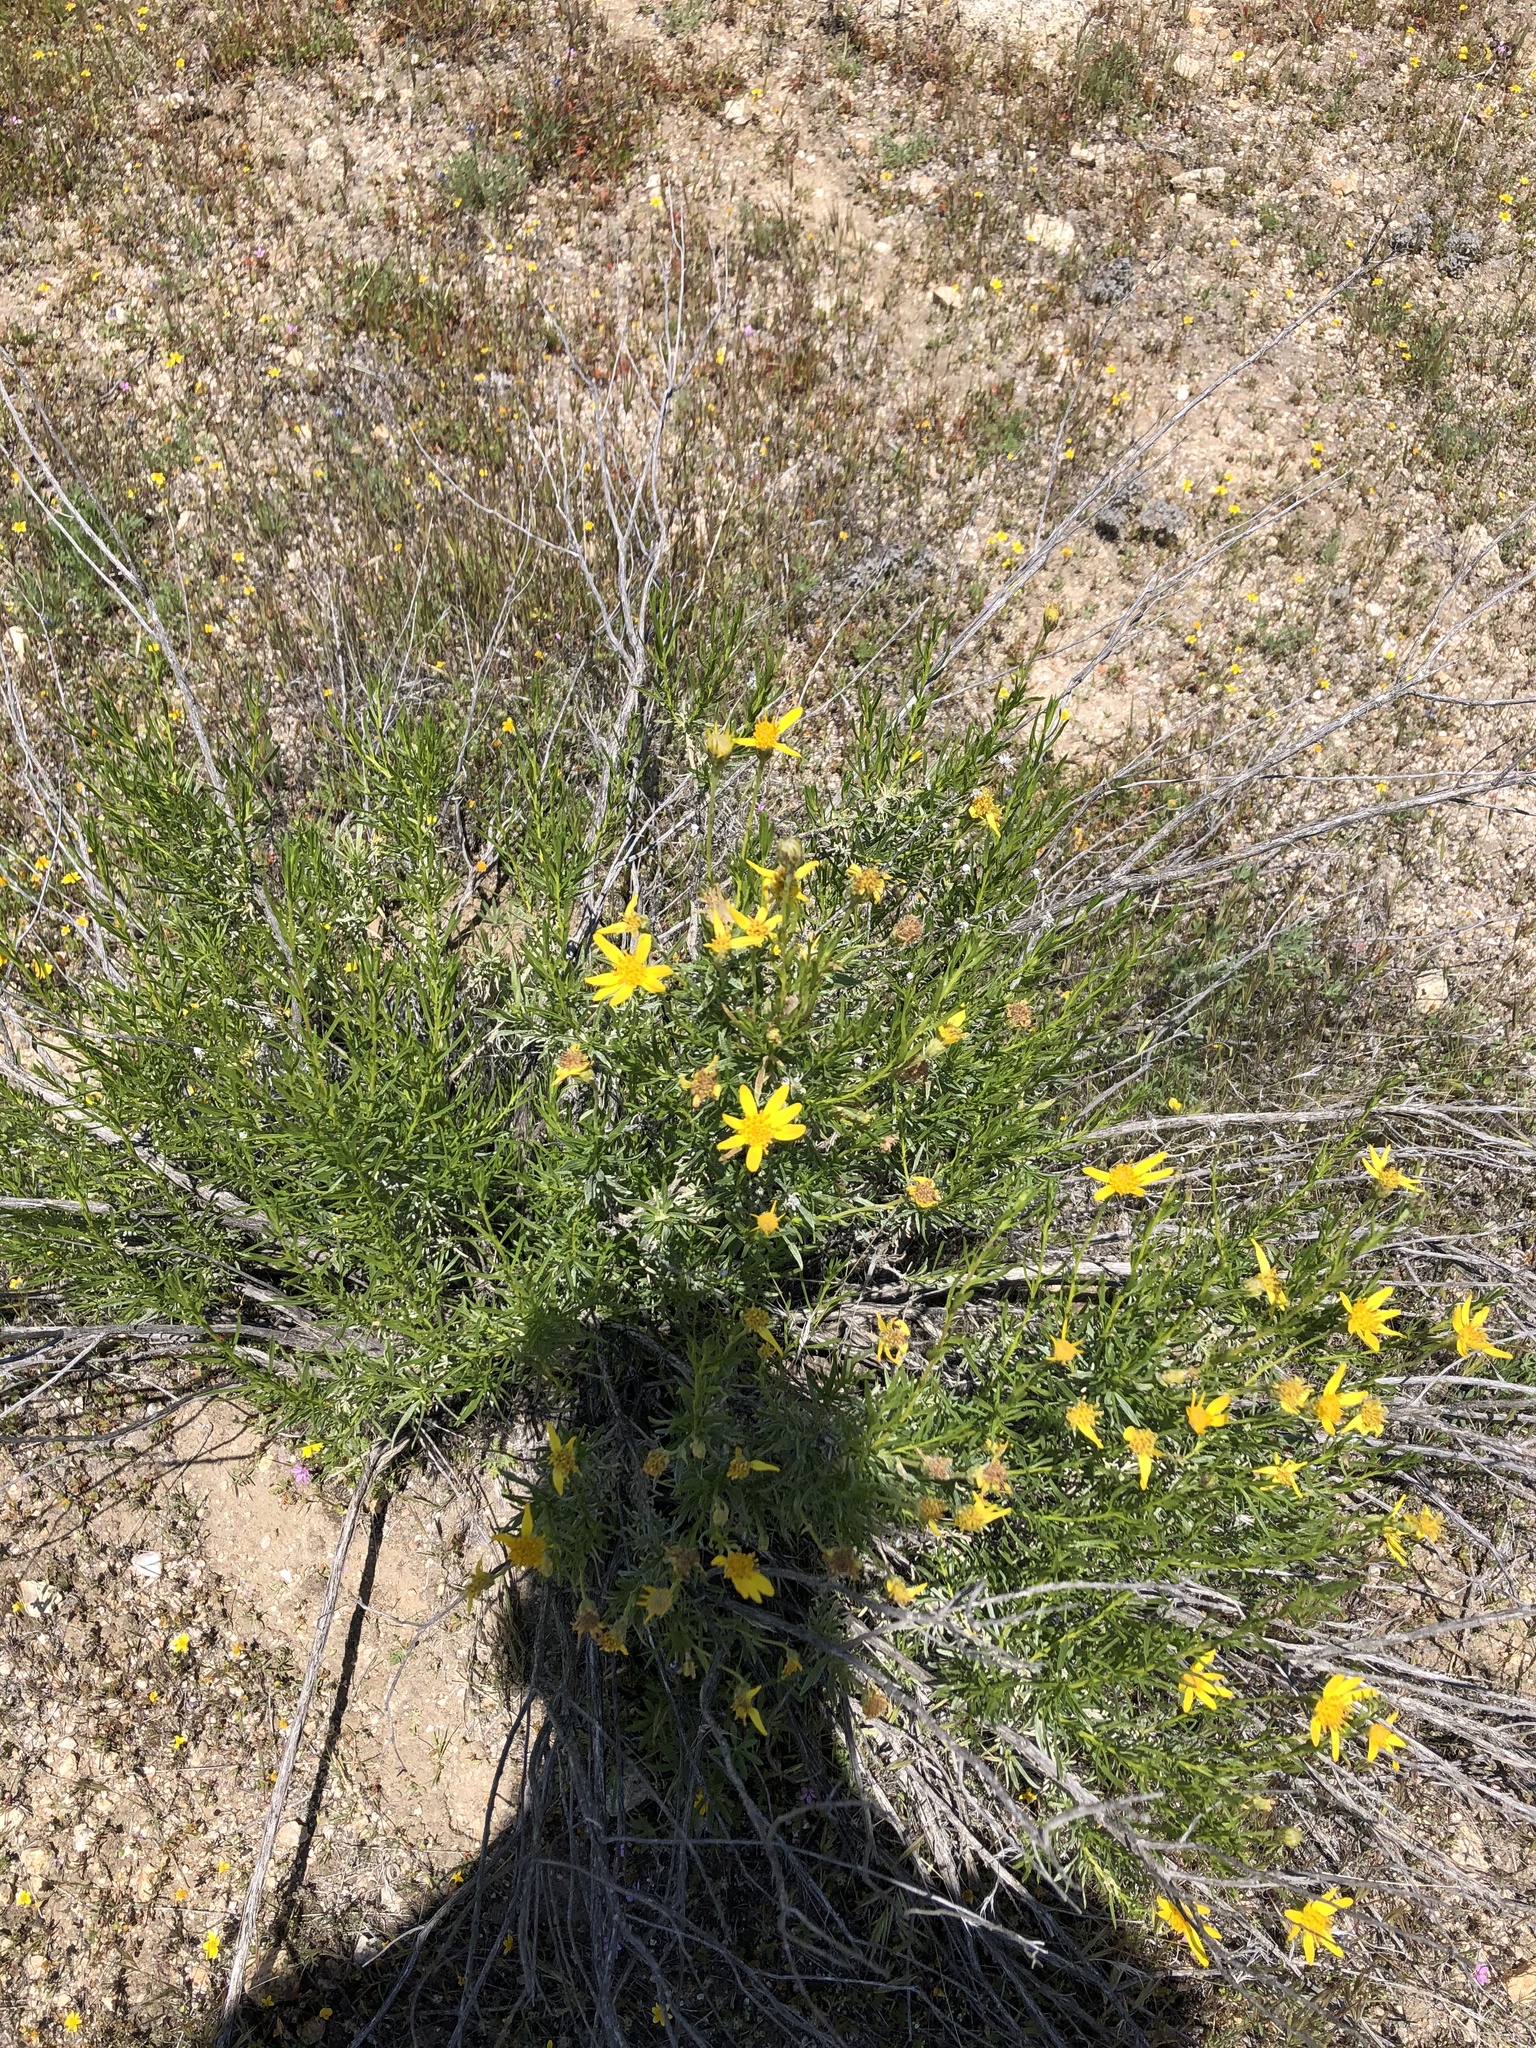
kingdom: Plantae
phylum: Tracheophyta
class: Magnoliopsida
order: Asterales
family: Asteraceae
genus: Ericameria
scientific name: Ericameria linearifolia
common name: Interior goldenbush
